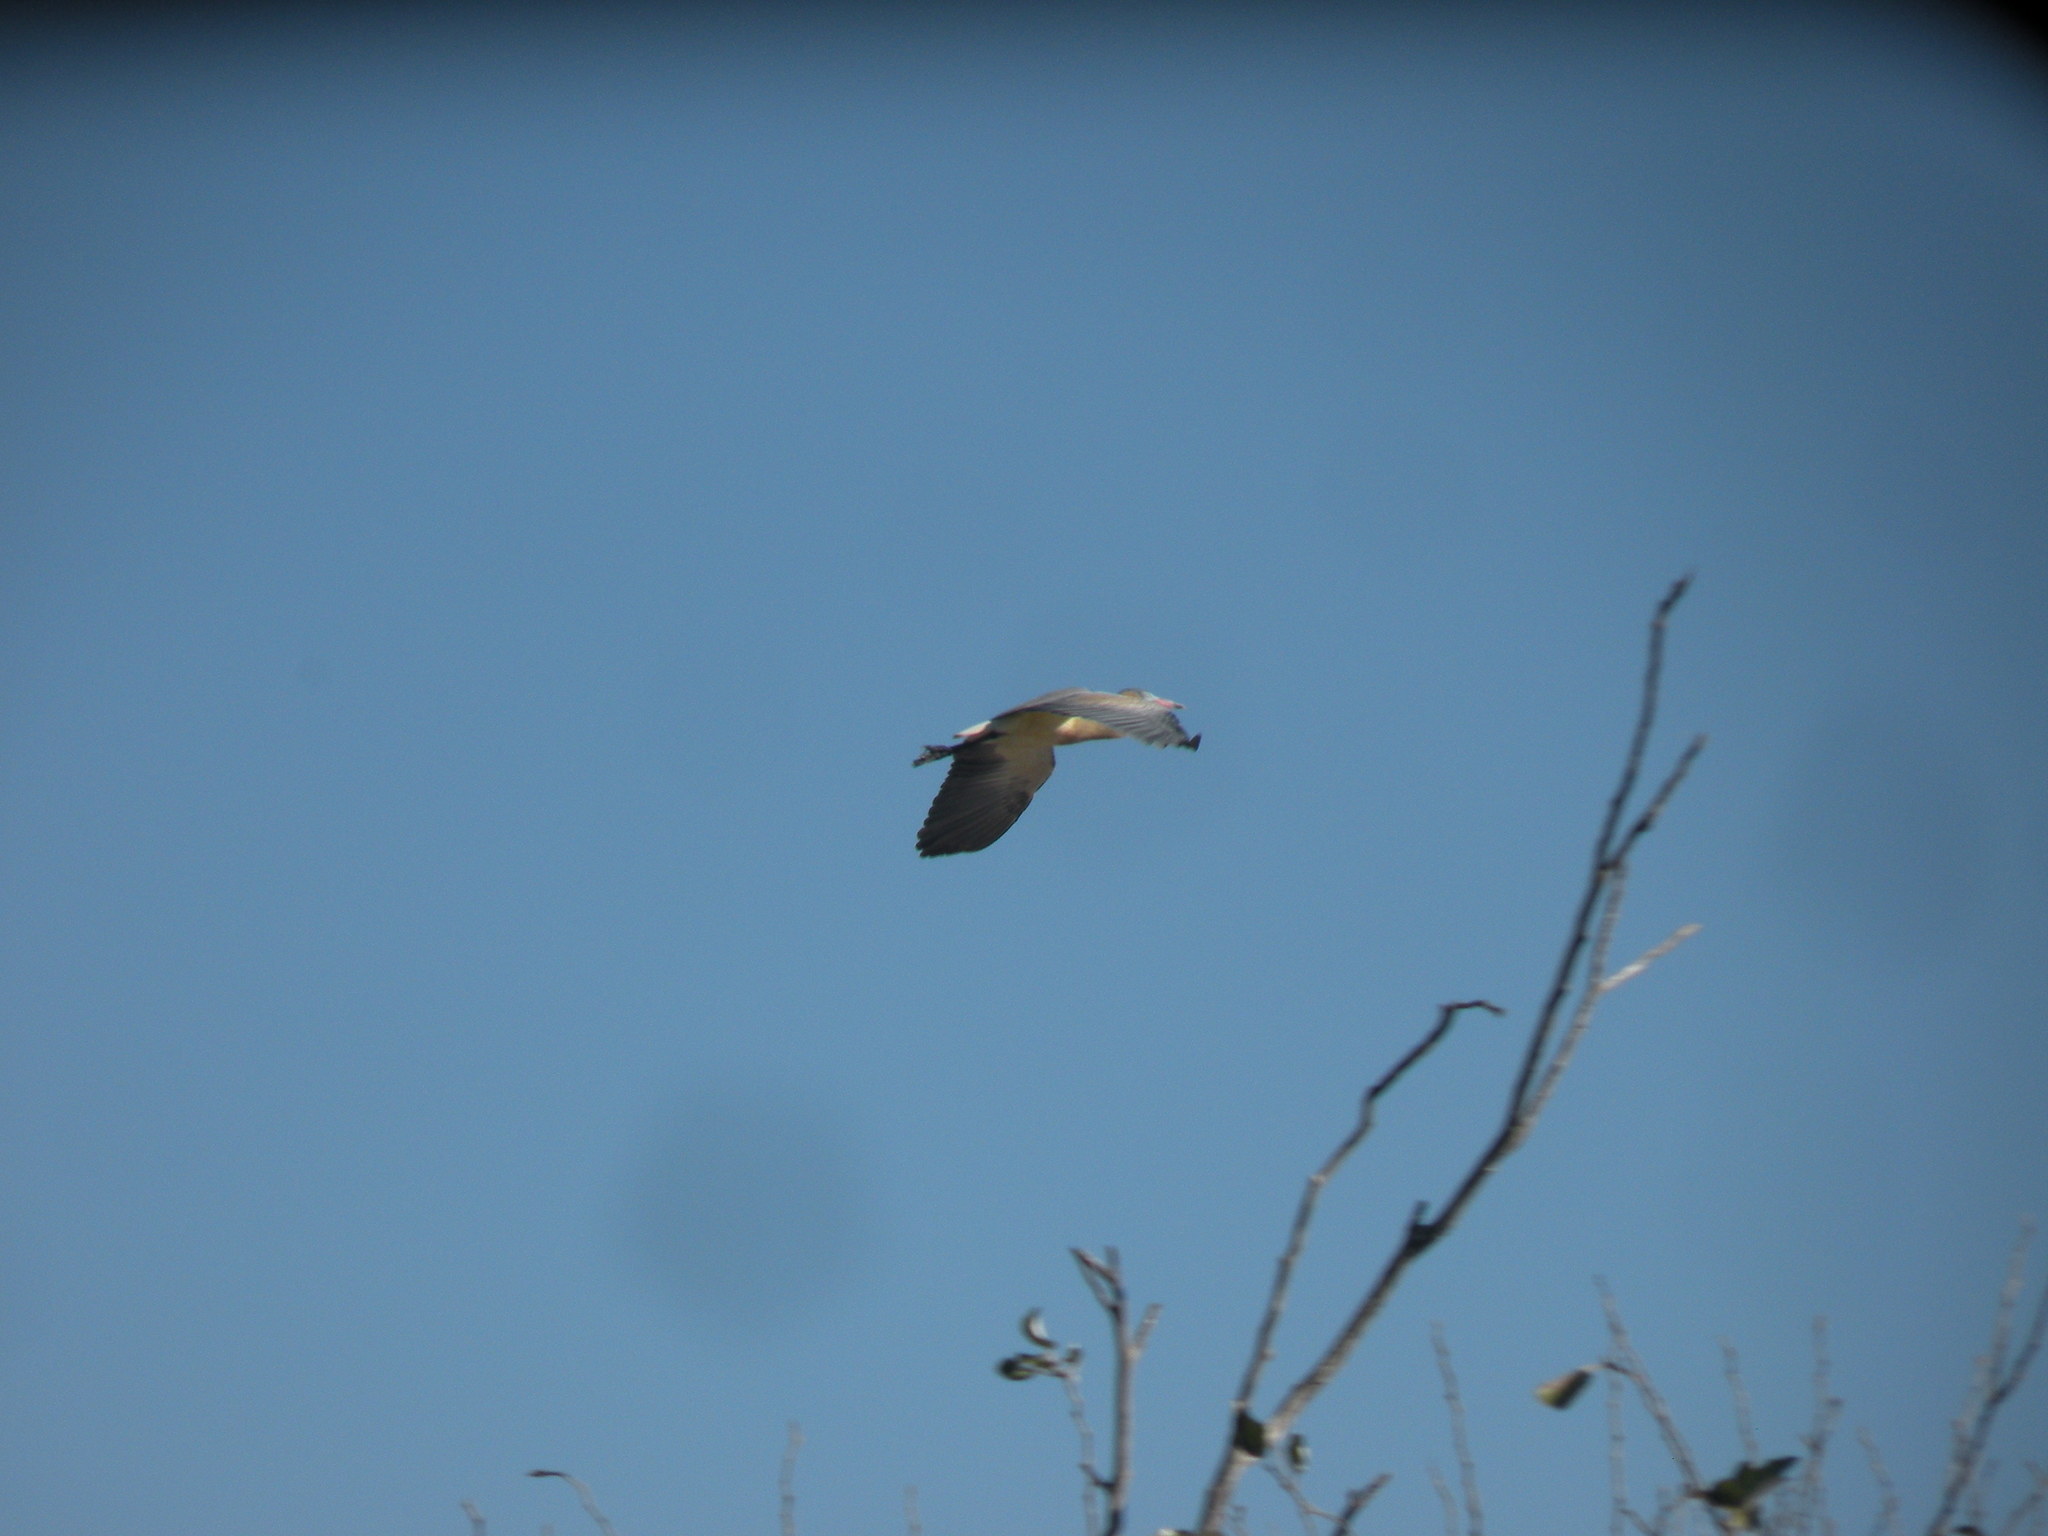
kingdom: Animalia
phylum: Chordata
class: Aves
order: Pelecaniformes
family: Ardeidae
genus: Syrigma
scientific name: Syrigma sibilatrix
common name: Whistling heron
